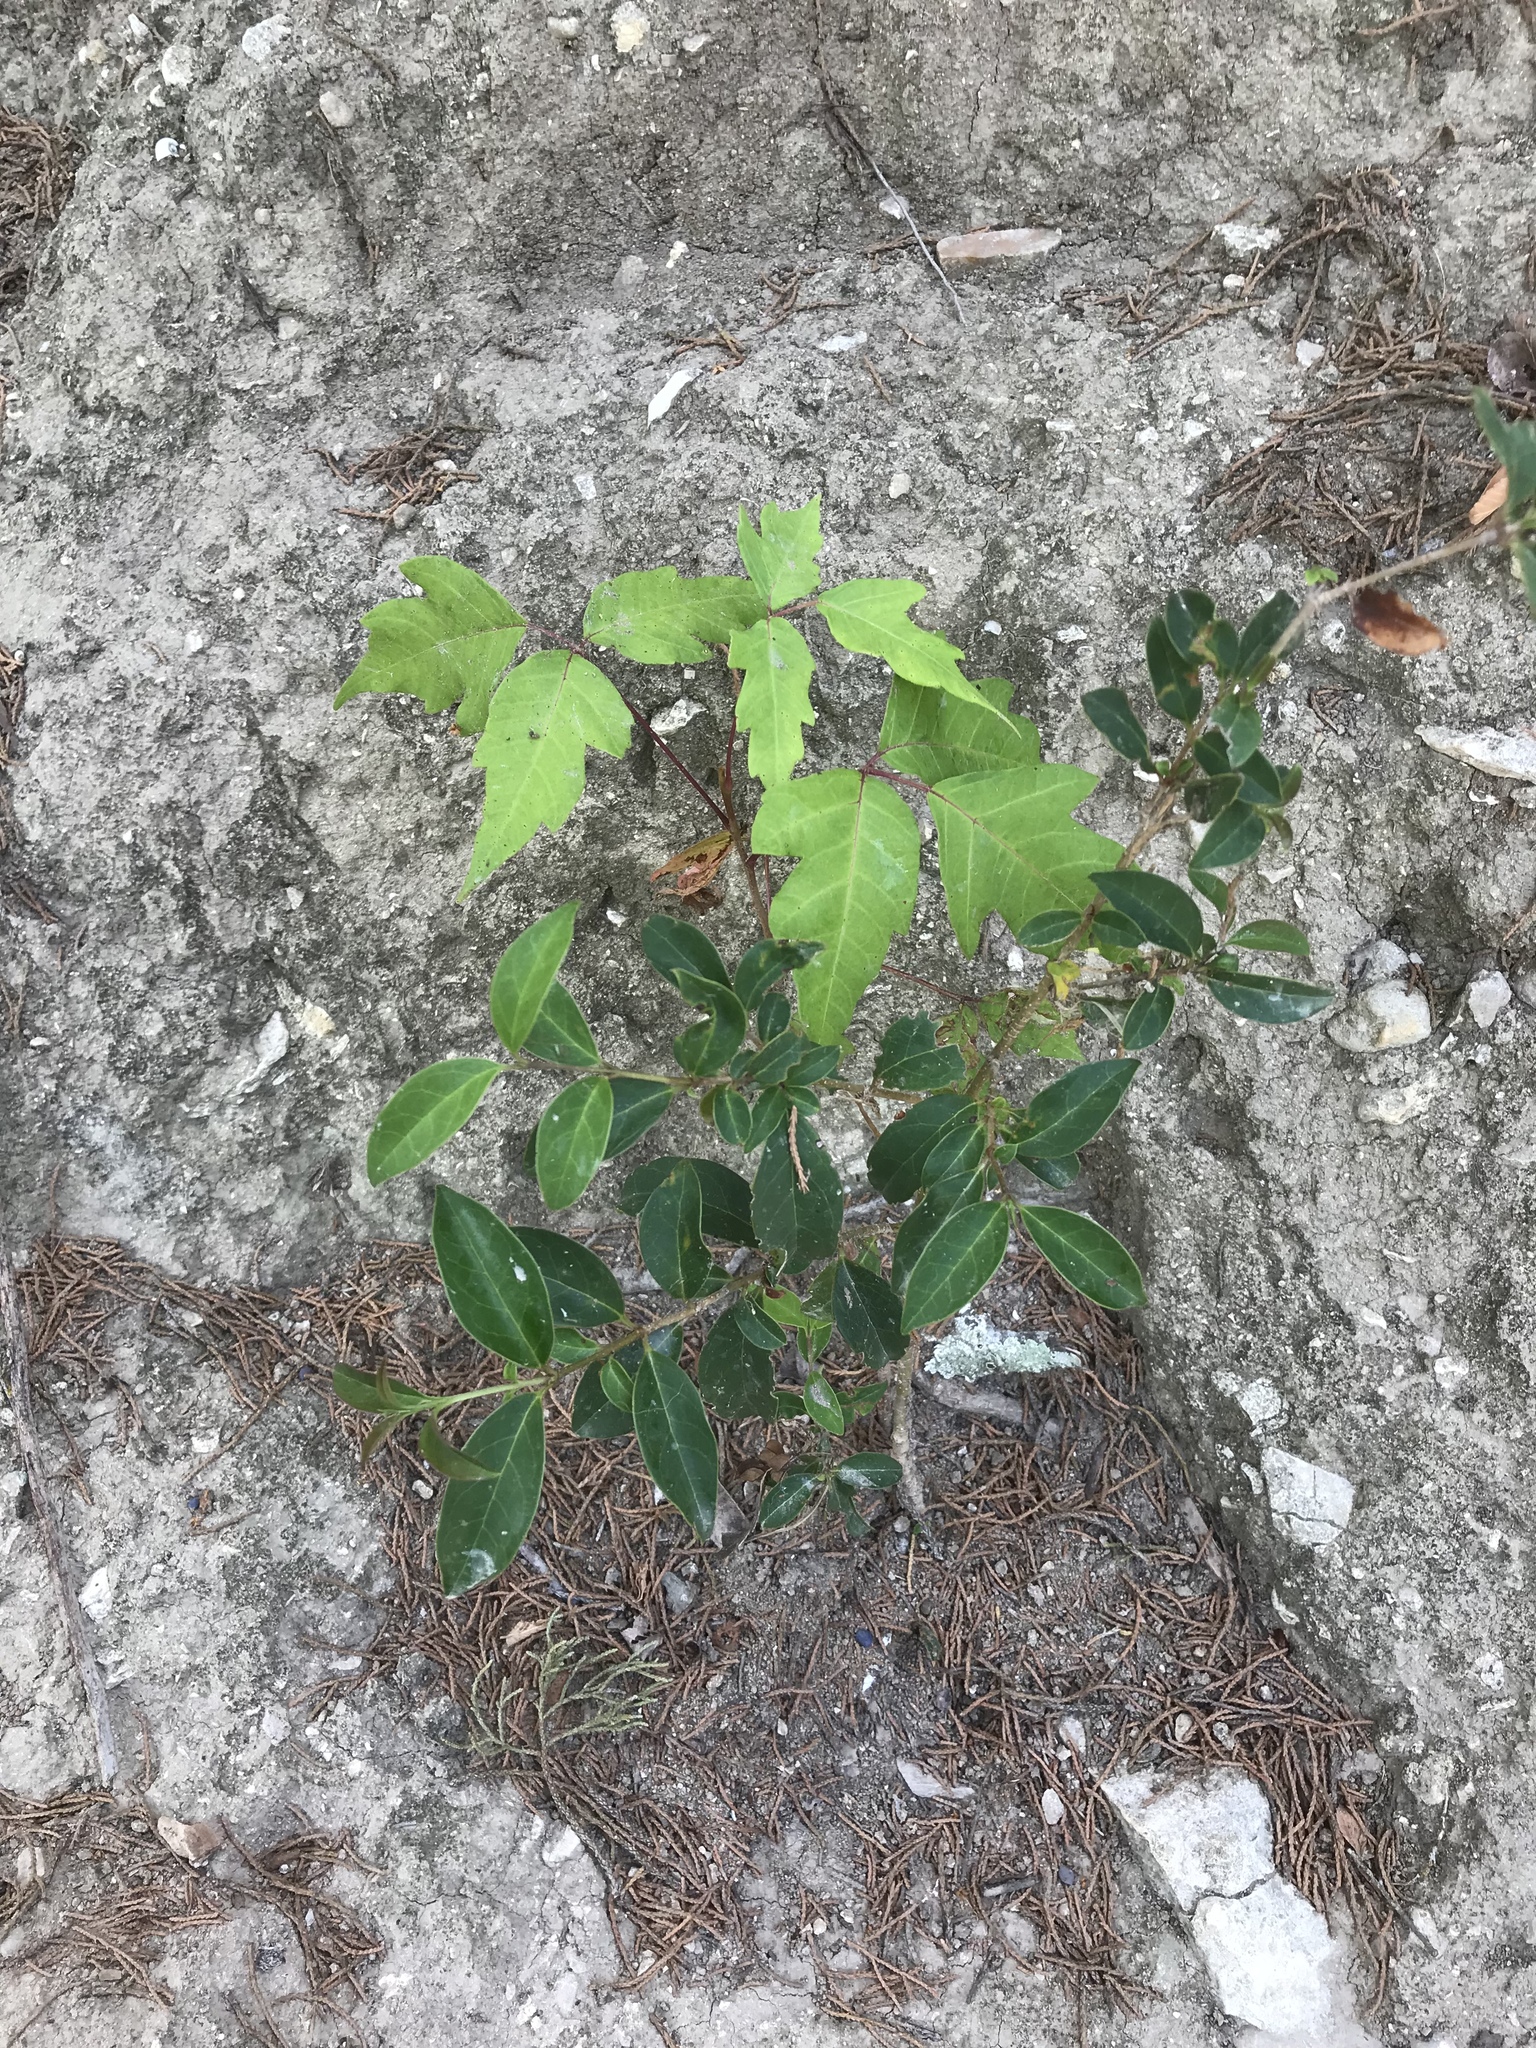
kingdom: Plantae
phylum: Tracheophyta
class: Magnoliopsida
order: Sapindales
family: Anacardiaceae
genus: Toxicodendron
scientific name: Toxicodendron radicans
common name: Poison ivy
